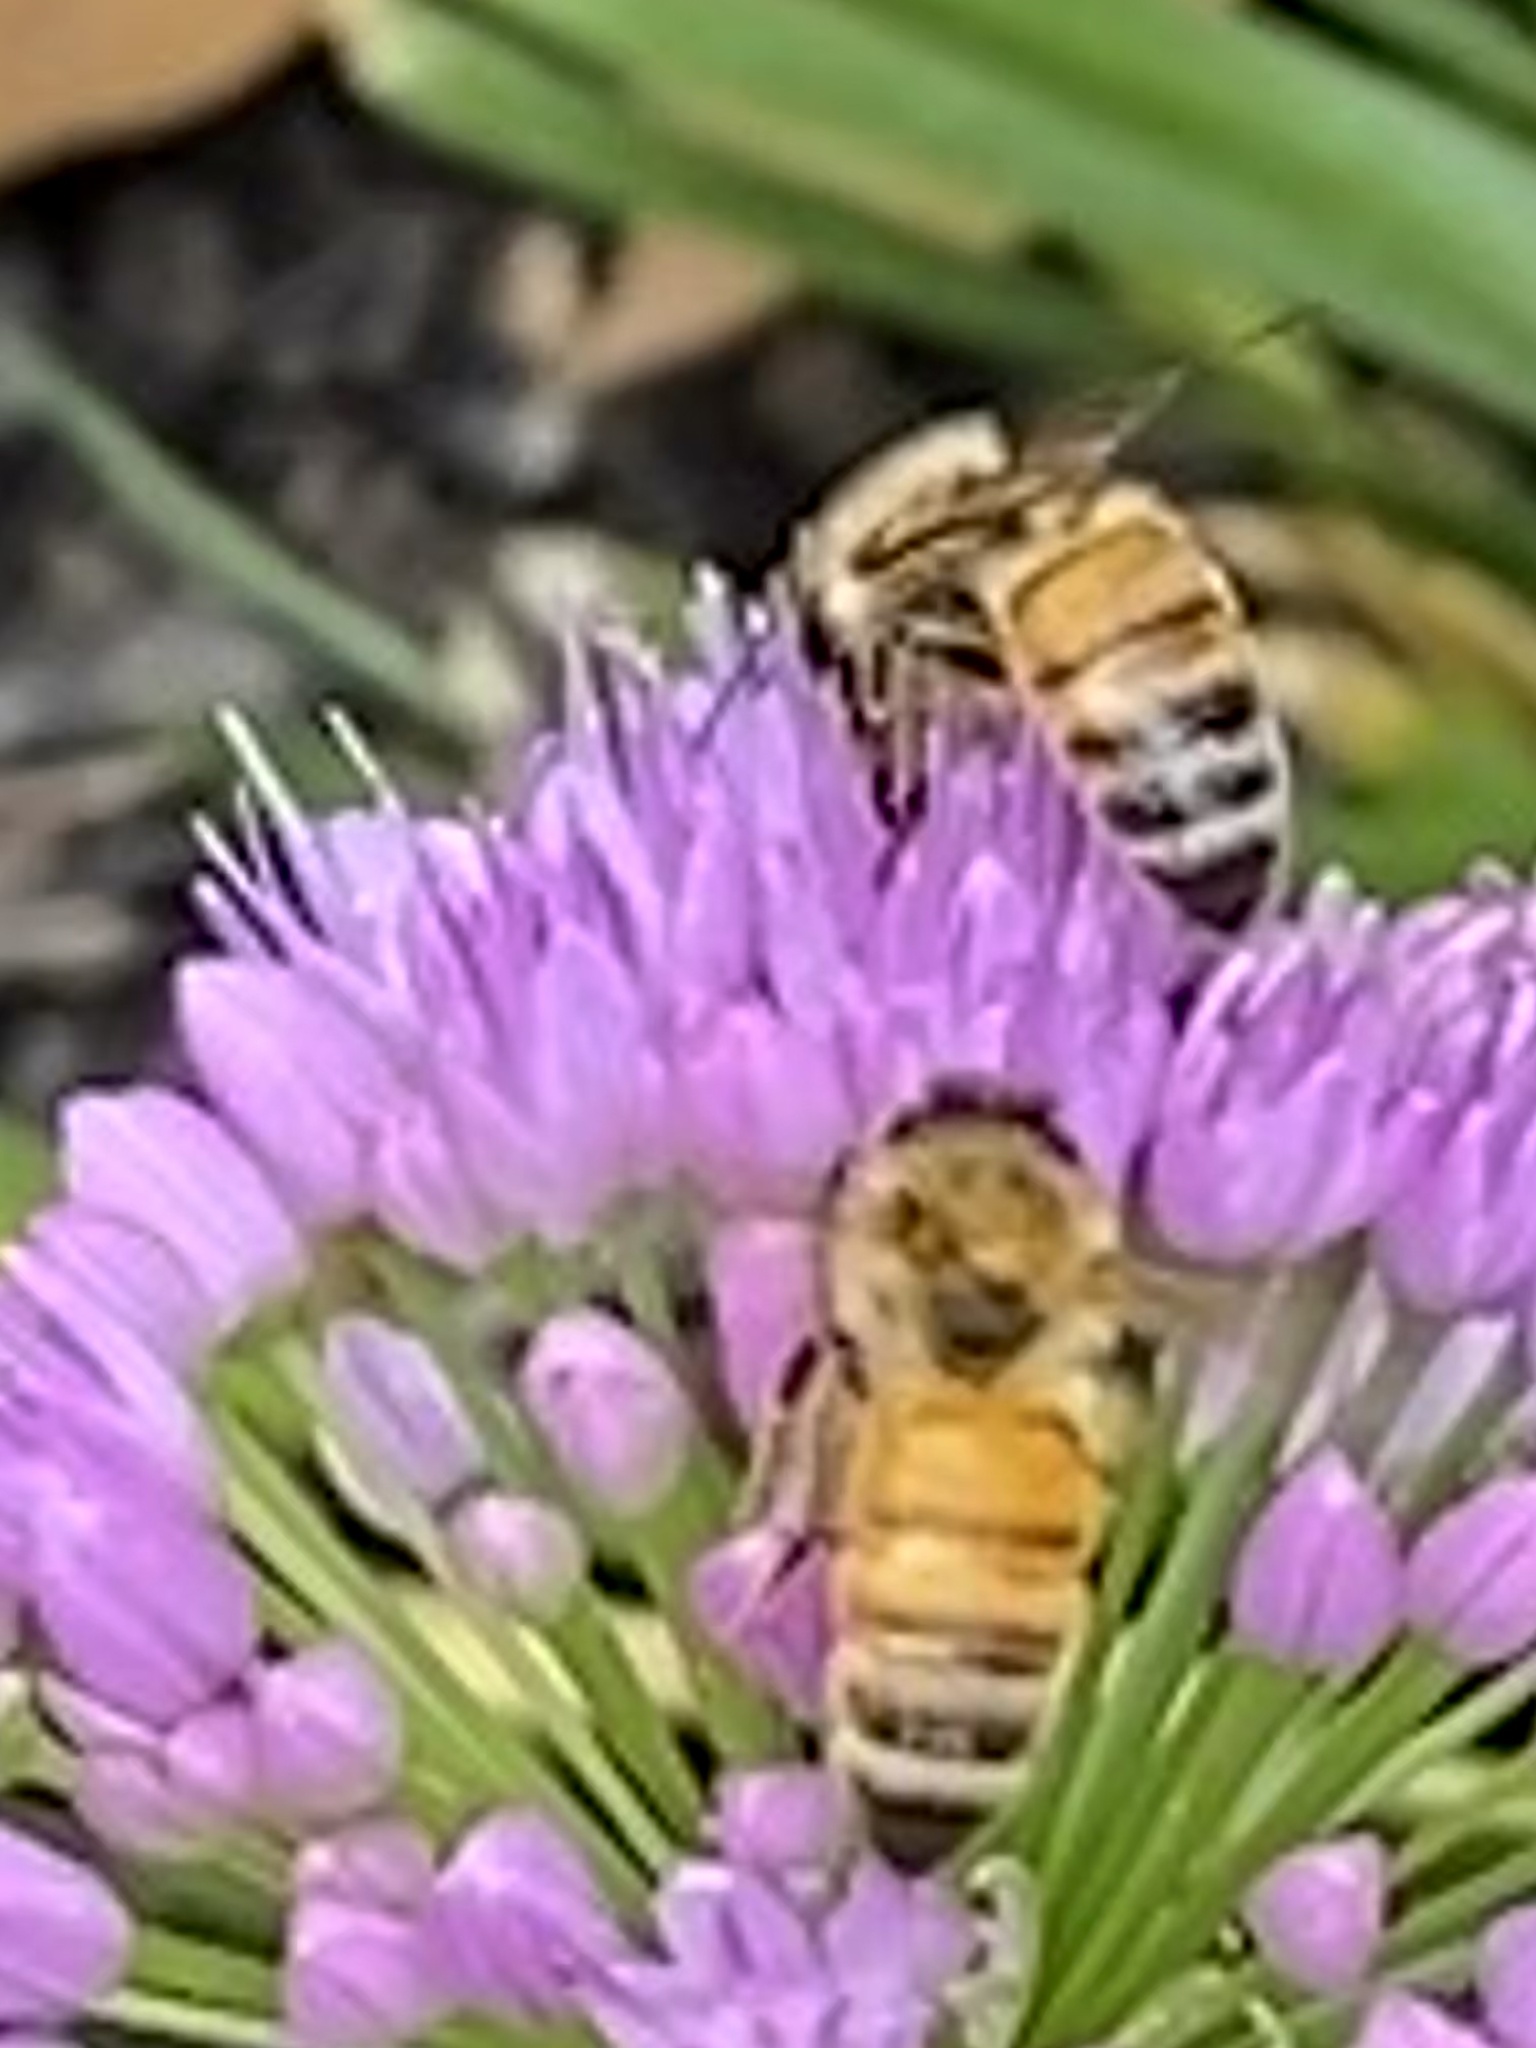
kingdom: Animalia
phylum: Arthropoda
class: Insecta
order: Hymenoptera
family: Apidae
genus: Apis
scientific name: Apis mellifera
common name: Honey bee
